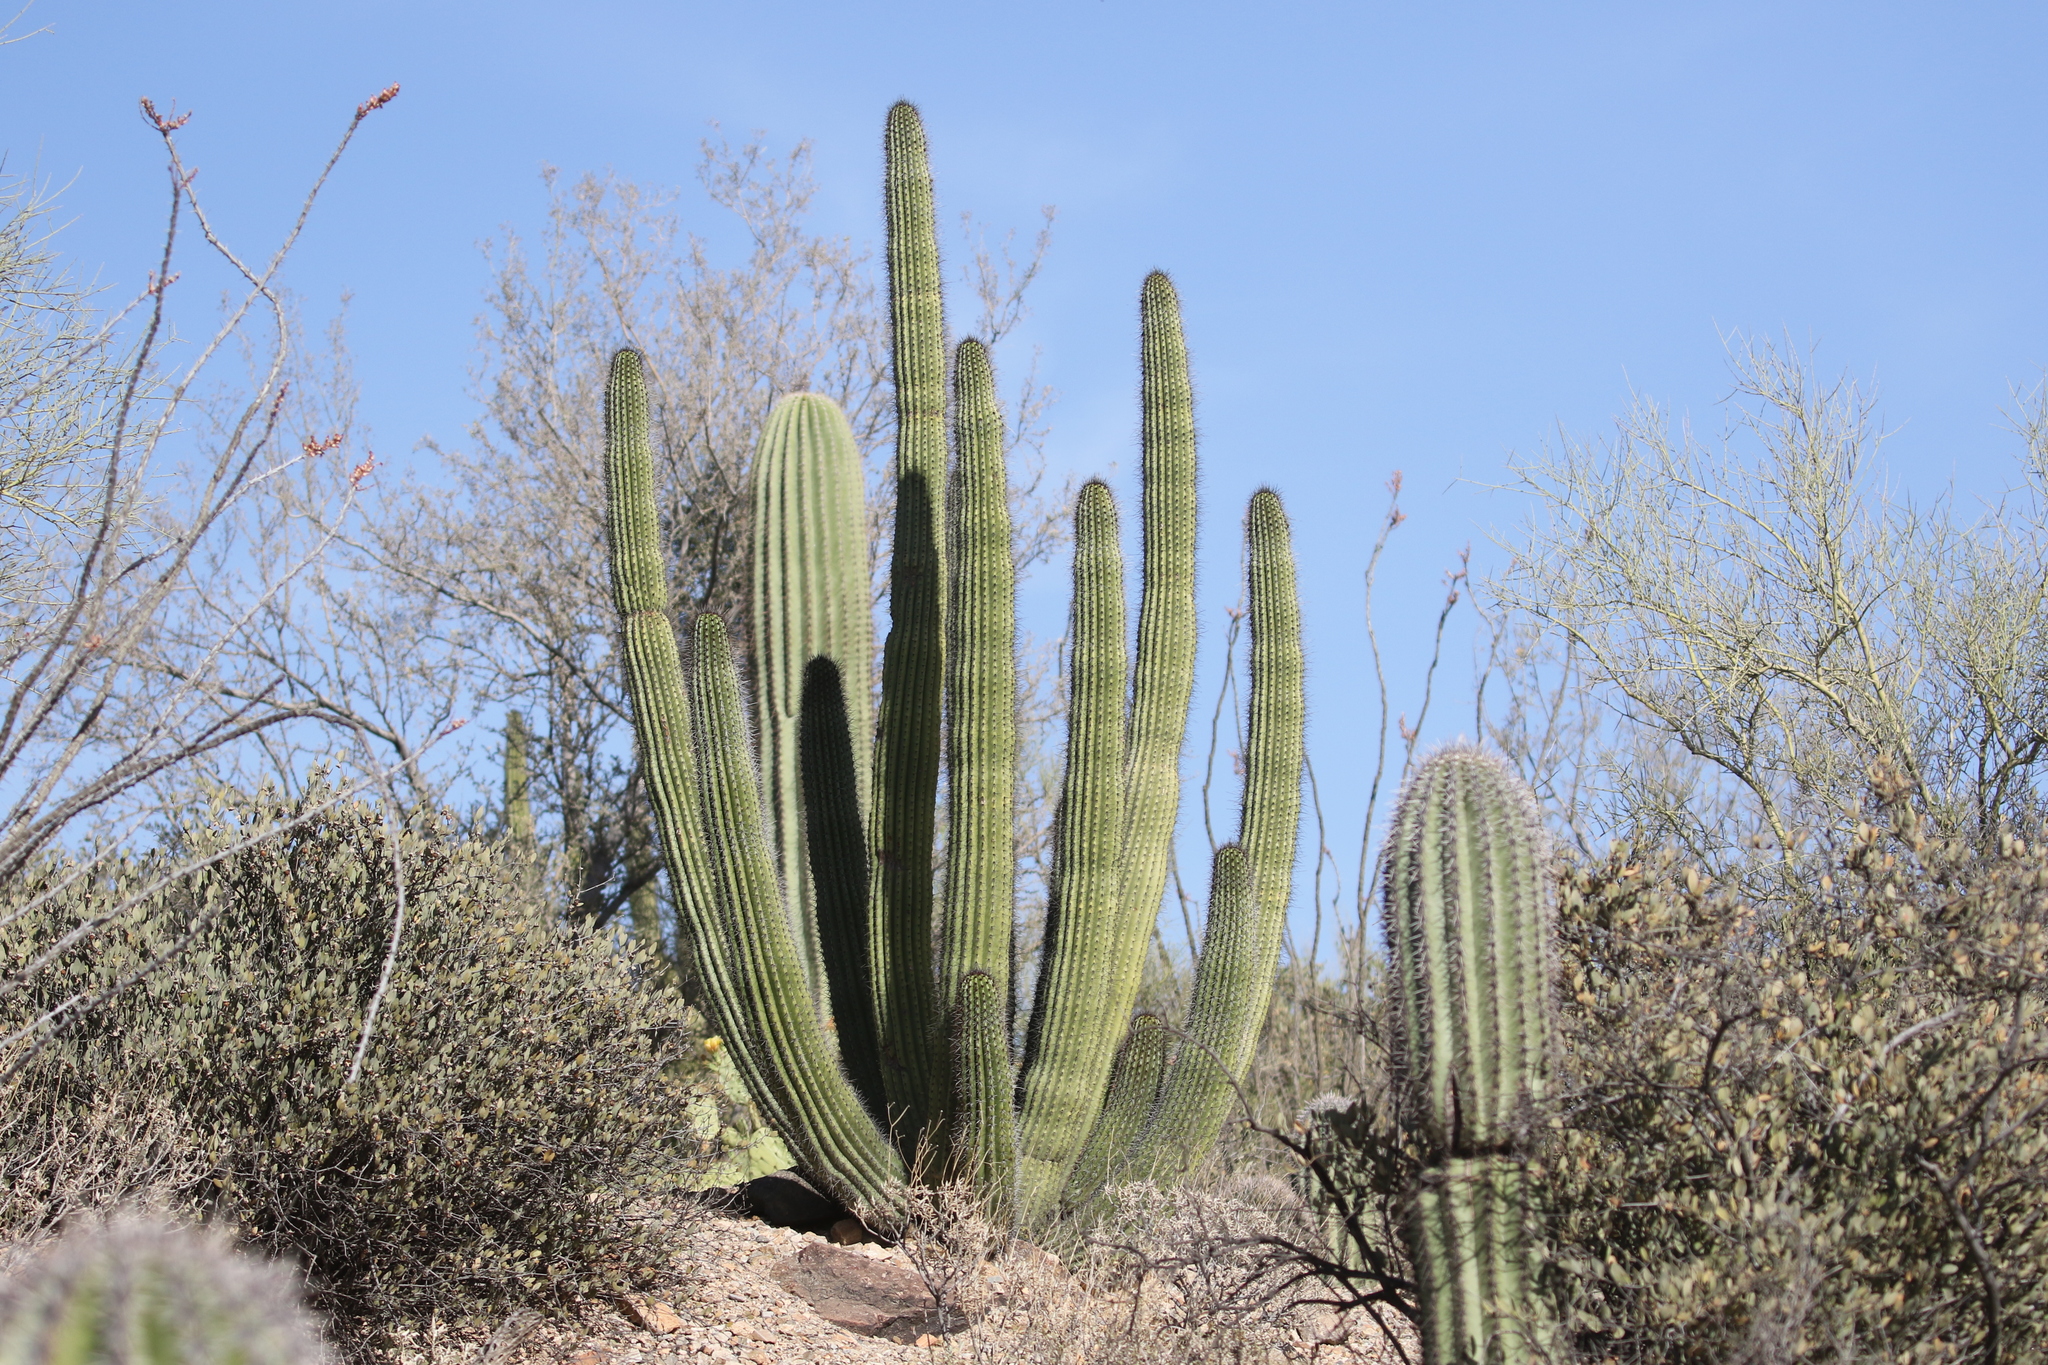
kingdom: Plantae
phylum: Tracheophyta
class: Magnoliopsida
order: Caryophyllales
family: Cactaceae
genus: Carnegiea
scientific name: Carnegiea gigantea
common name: Saguaro
